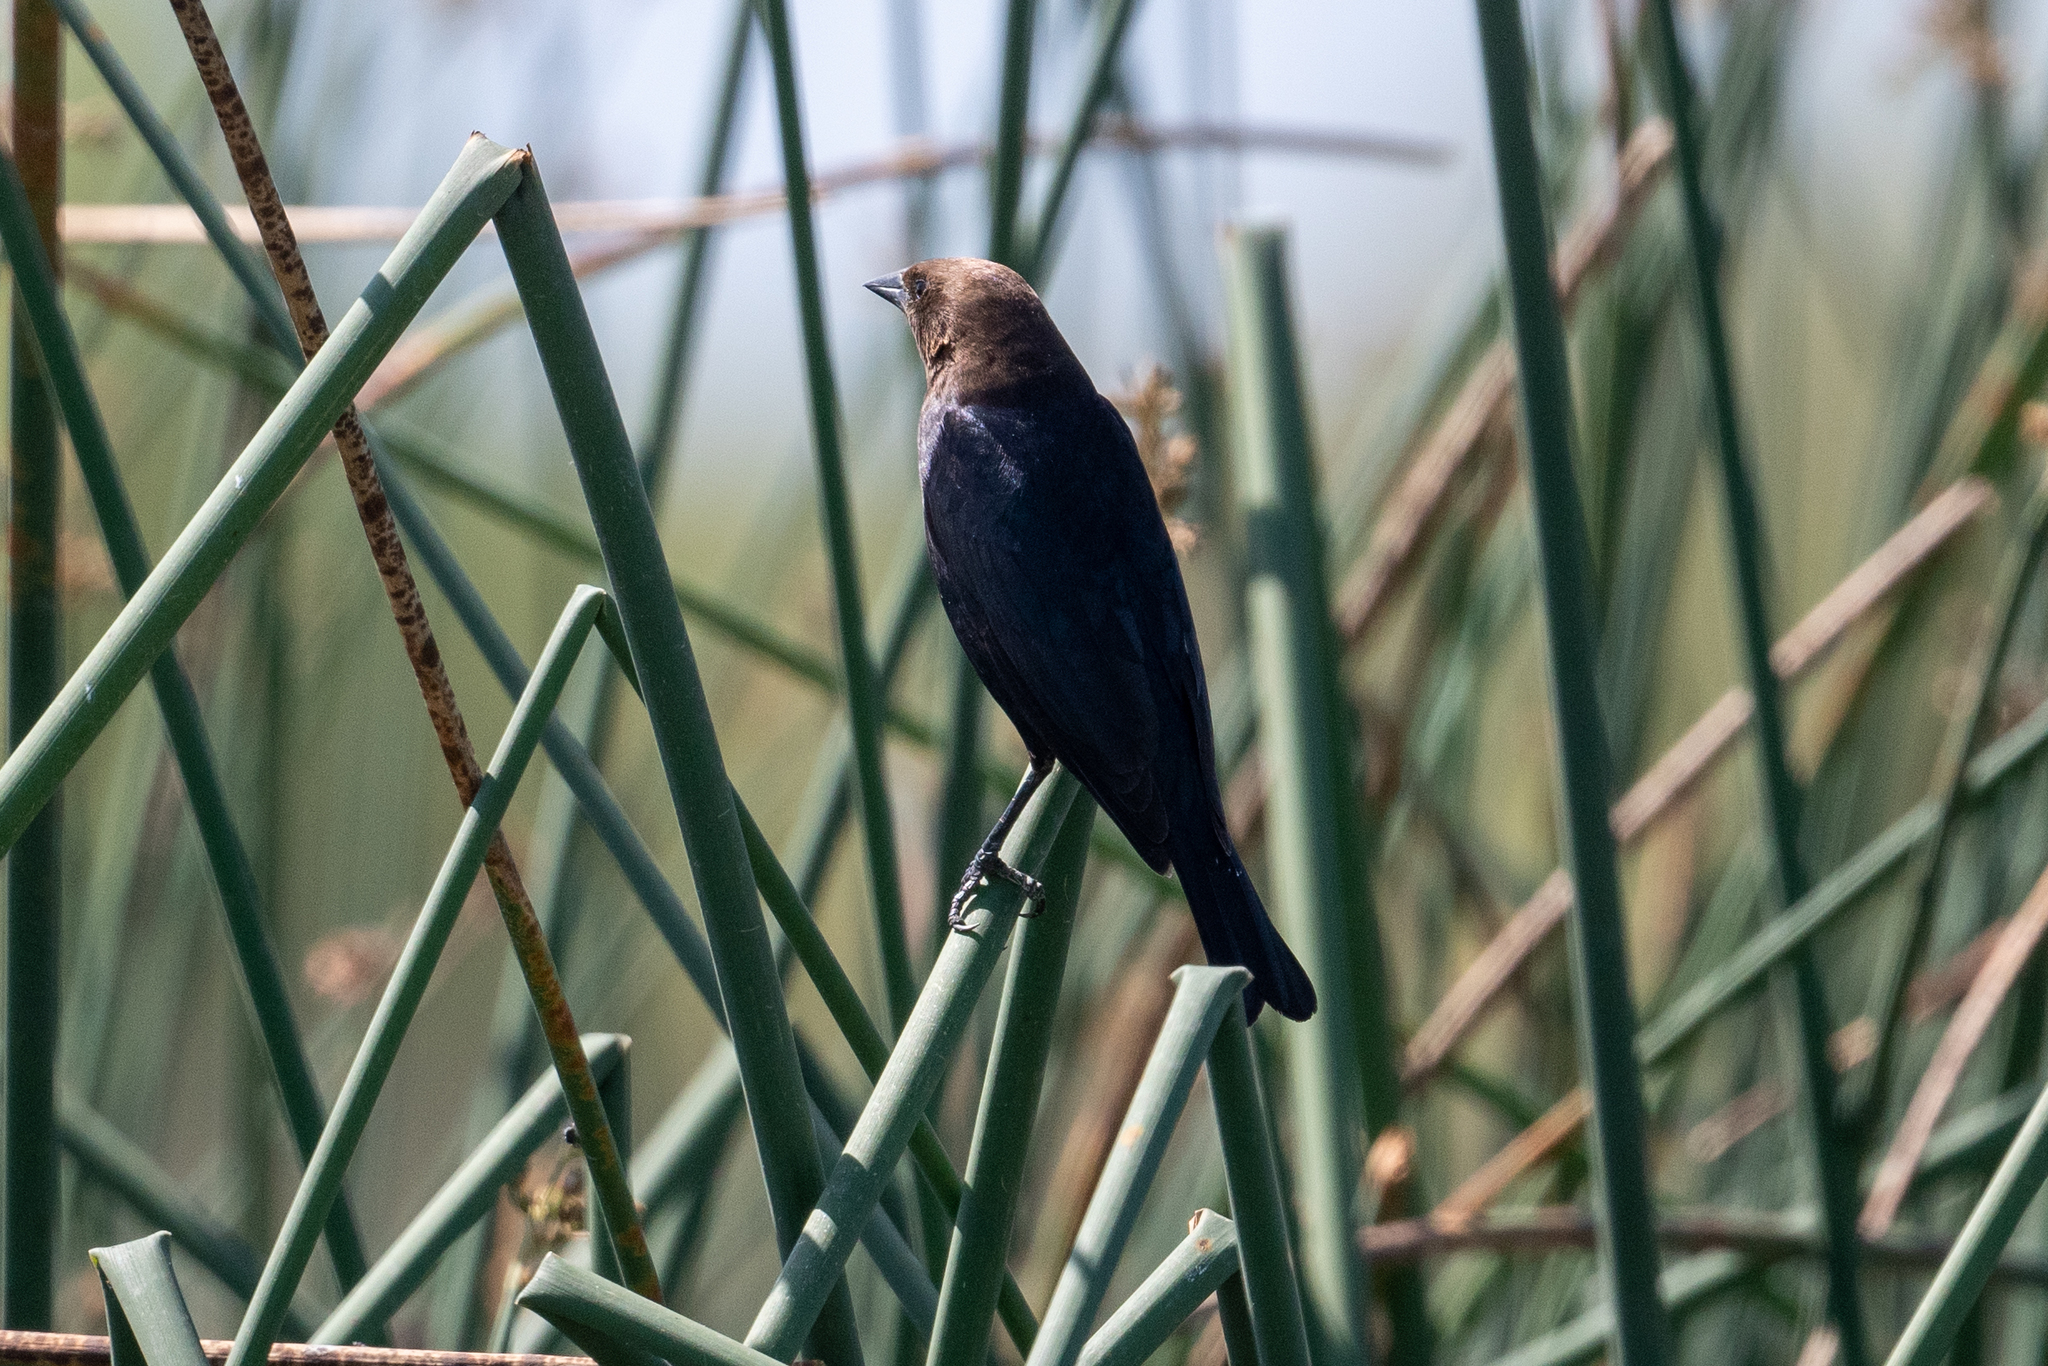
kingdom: Animalia
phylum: Chordata
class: Aves
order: Passeriformes
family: Icteridae
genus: Molothrus
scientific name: Molothrus ater
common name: Brown-headed cowbird
